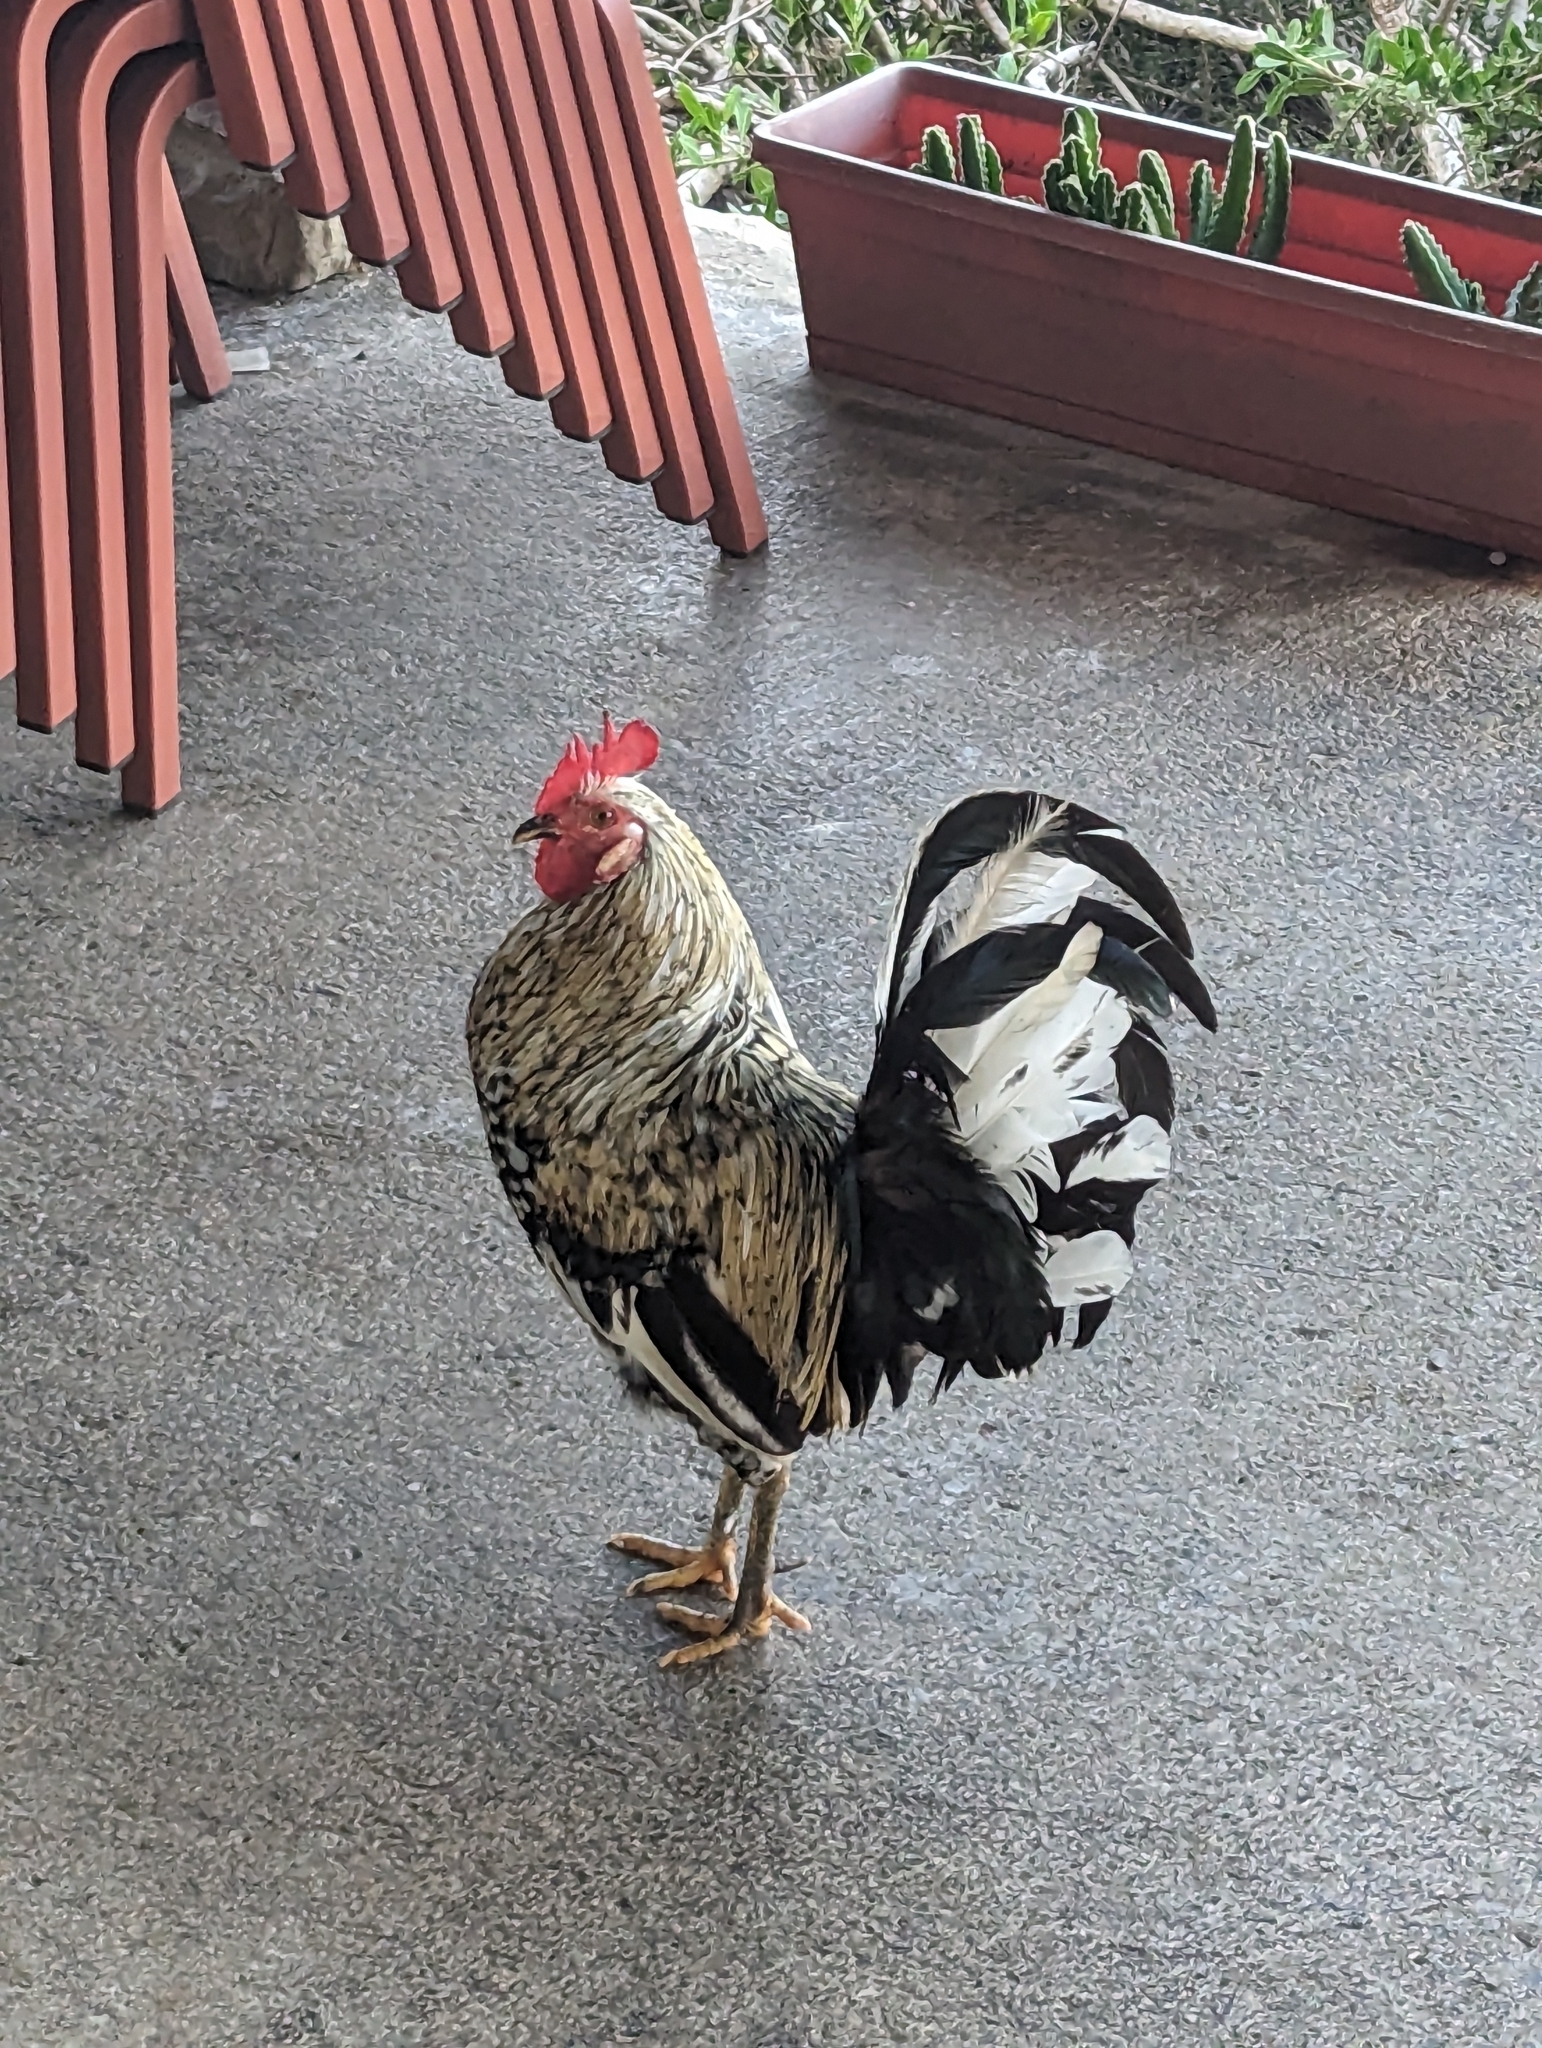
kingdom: Animalia
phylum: Chordata
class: Aves
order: Galliformes
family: Phasianidae
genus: Gallus
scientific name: Gallus gallus
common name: Red junglefowl
